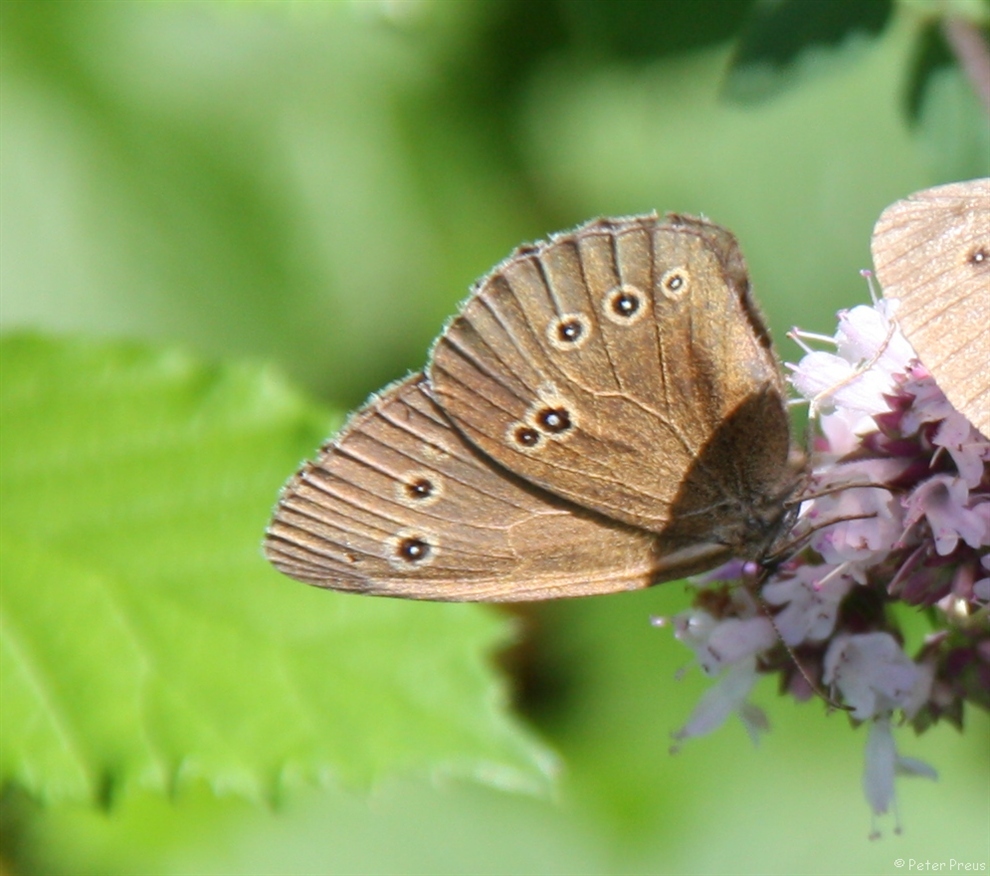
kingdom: Animalia
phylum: Arthropoda
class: Insecta
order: Lepidoptera
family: Nymphalidae
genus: Aphantopus
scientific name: Aphantopus hyperantus
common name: Ringlet
